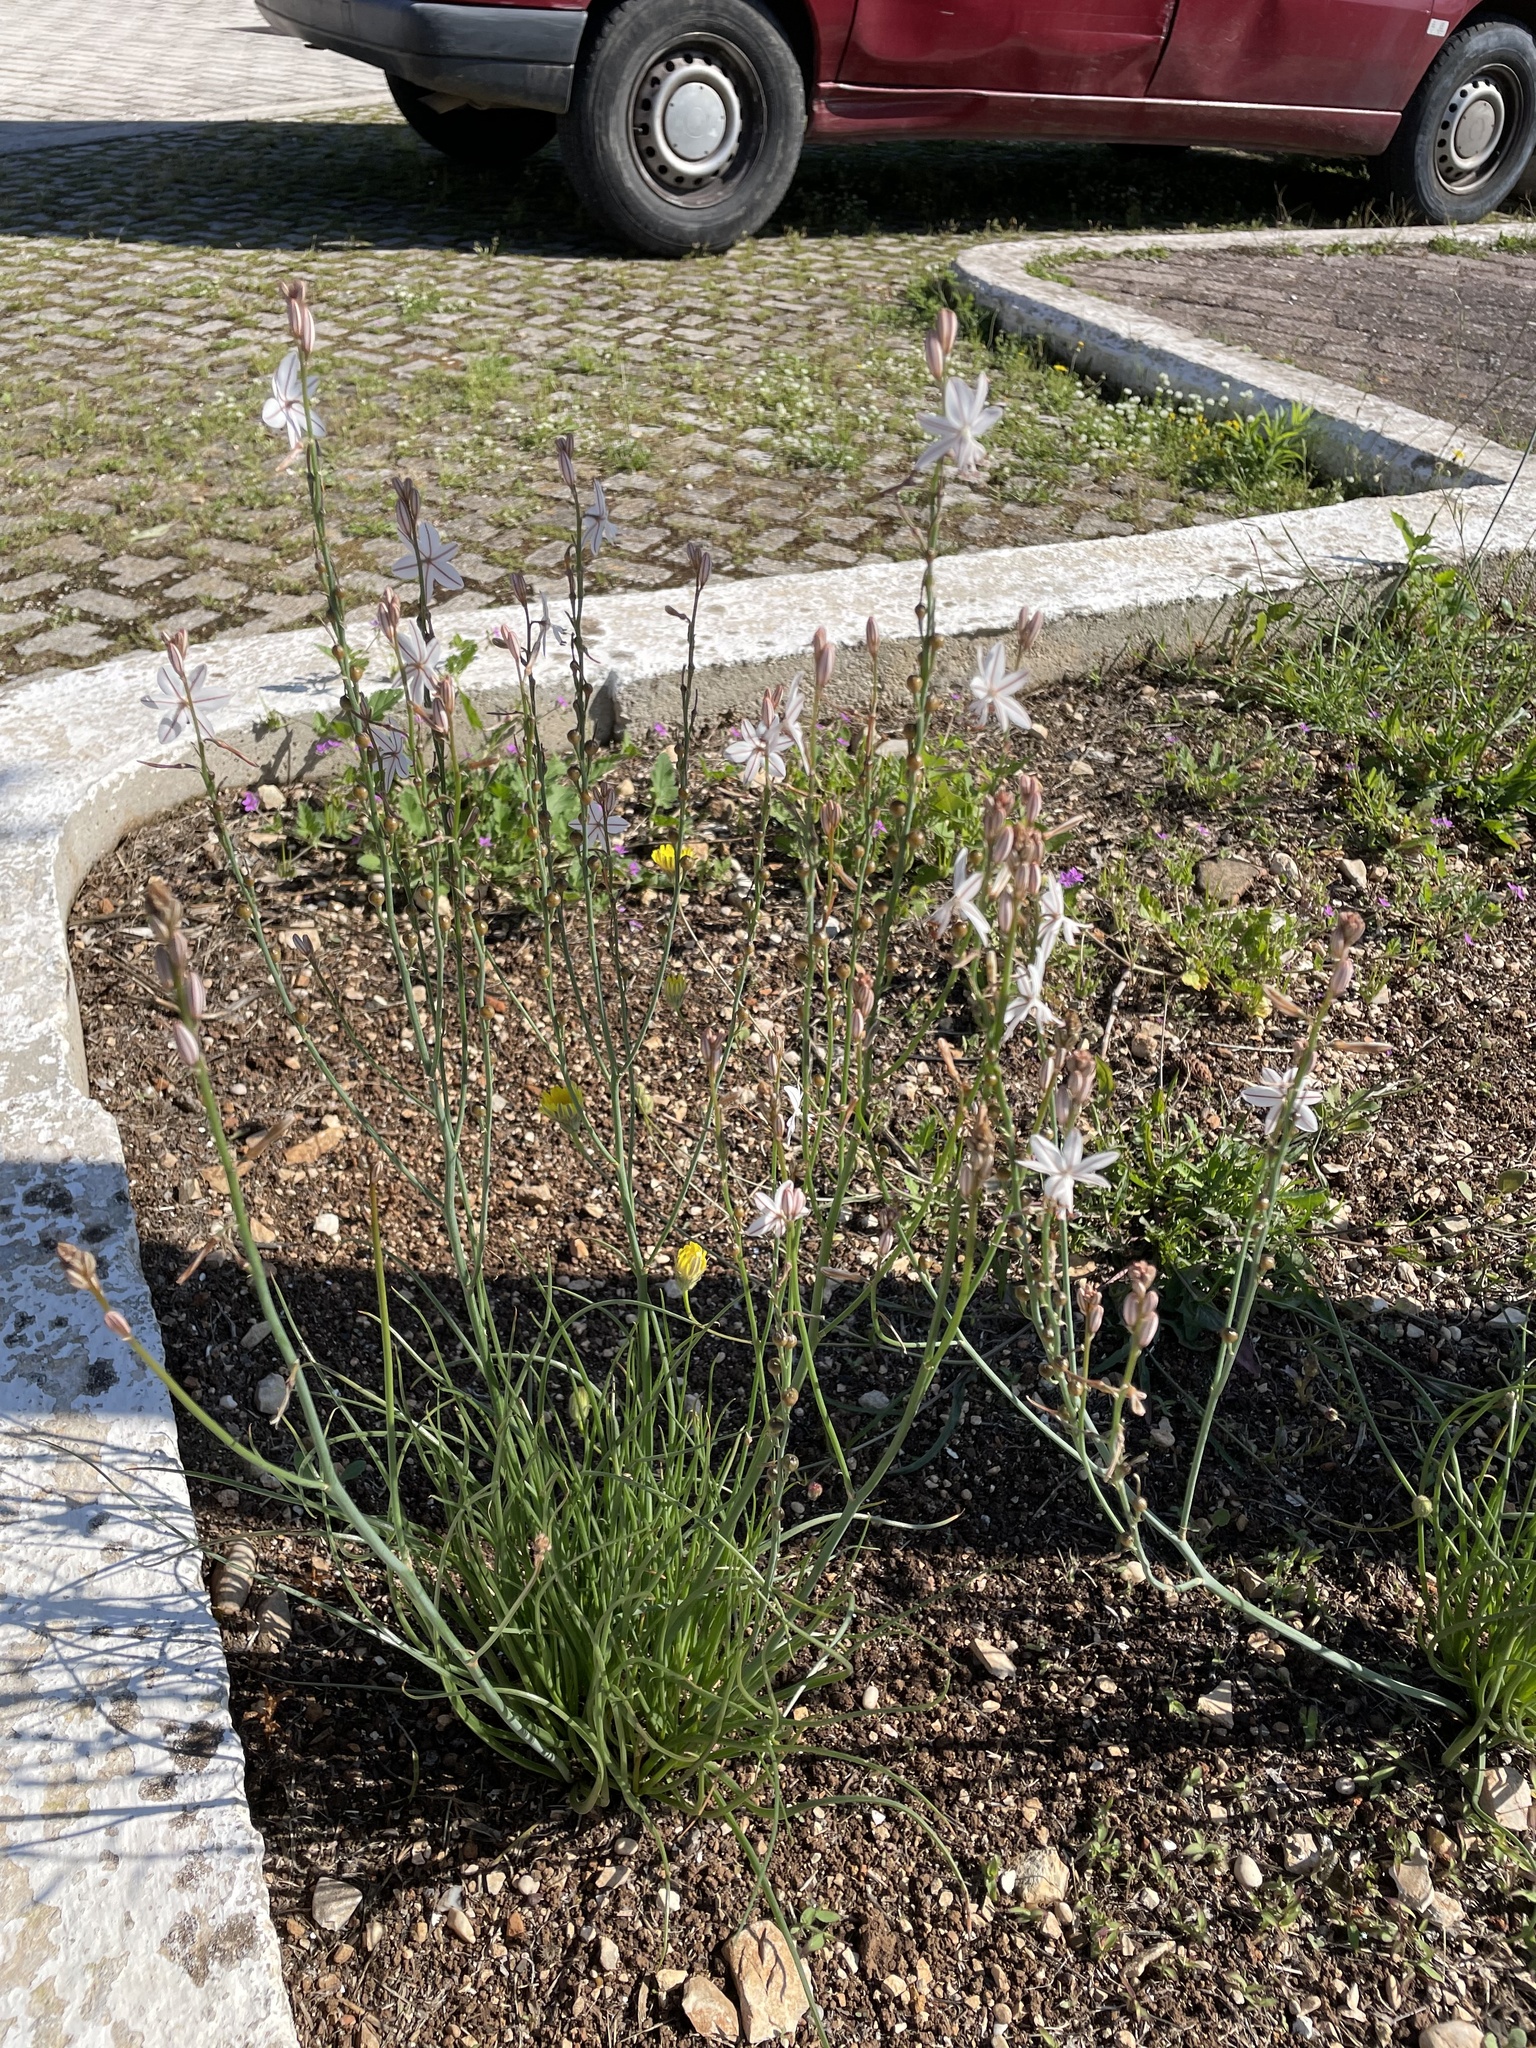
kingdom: Plantae
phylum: Tracheophyta
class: Liliopsida
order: Asparagales
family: Asphodelaceae
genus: Asphodelus
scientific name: Asphodelus fistulosus
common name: Onionweed
